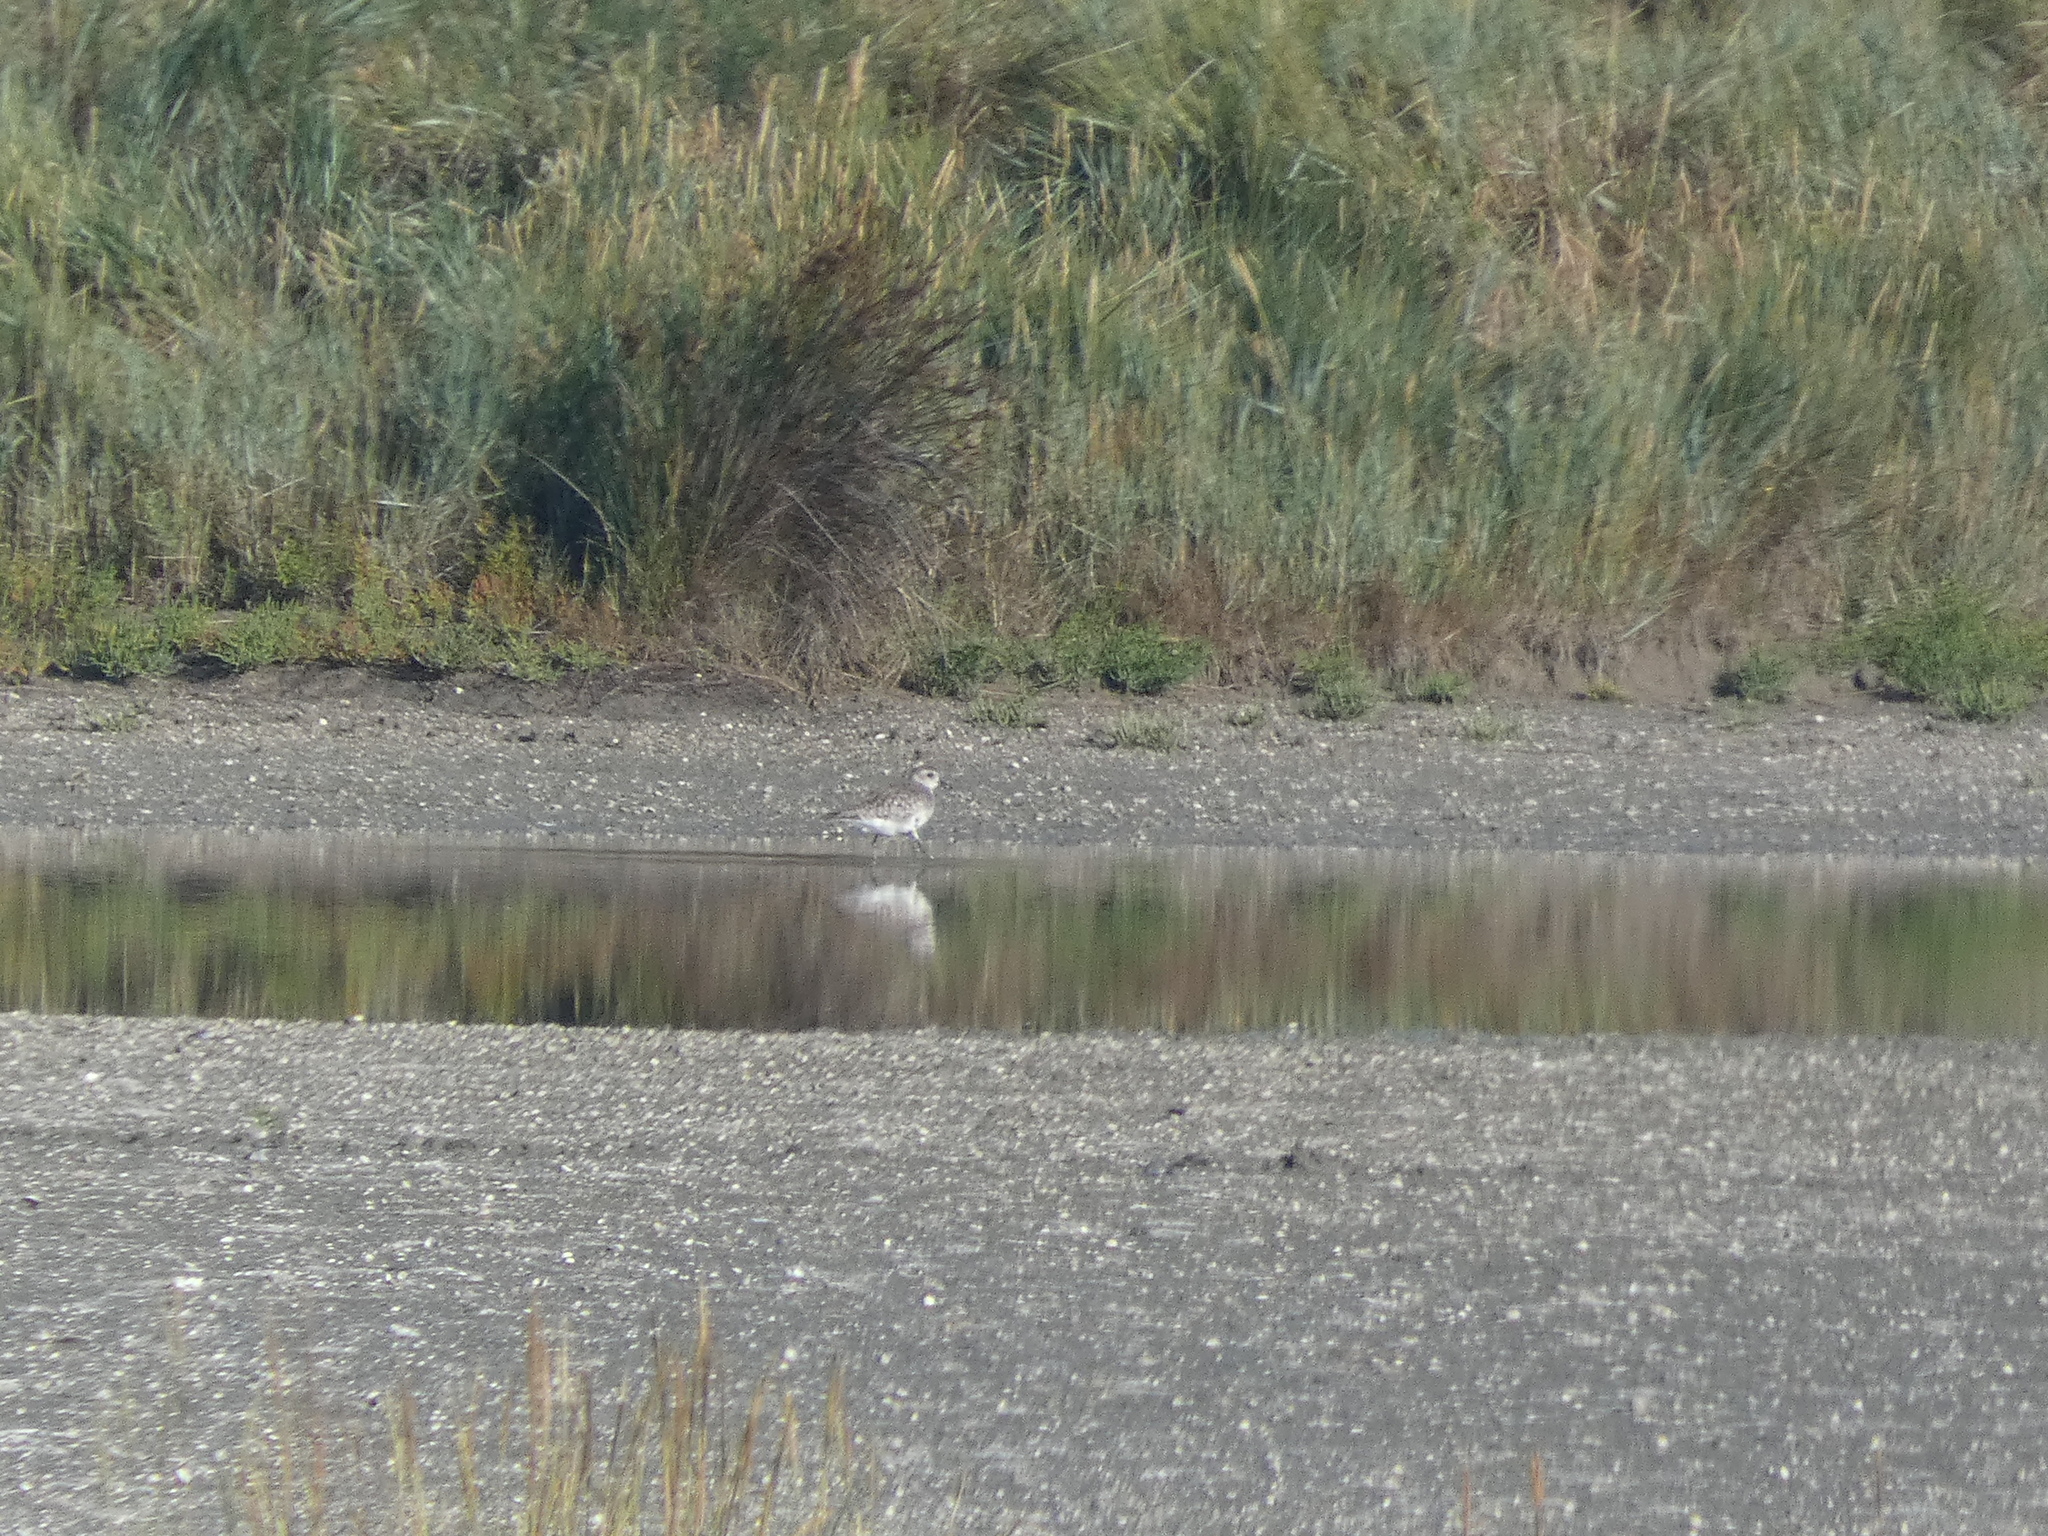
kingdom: Animalia
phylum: Chordata
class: Aves
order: Charadriiformes
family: Charadriidae
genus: Pluvialis
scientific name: Pluvialis squatarola
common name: Grey plover
